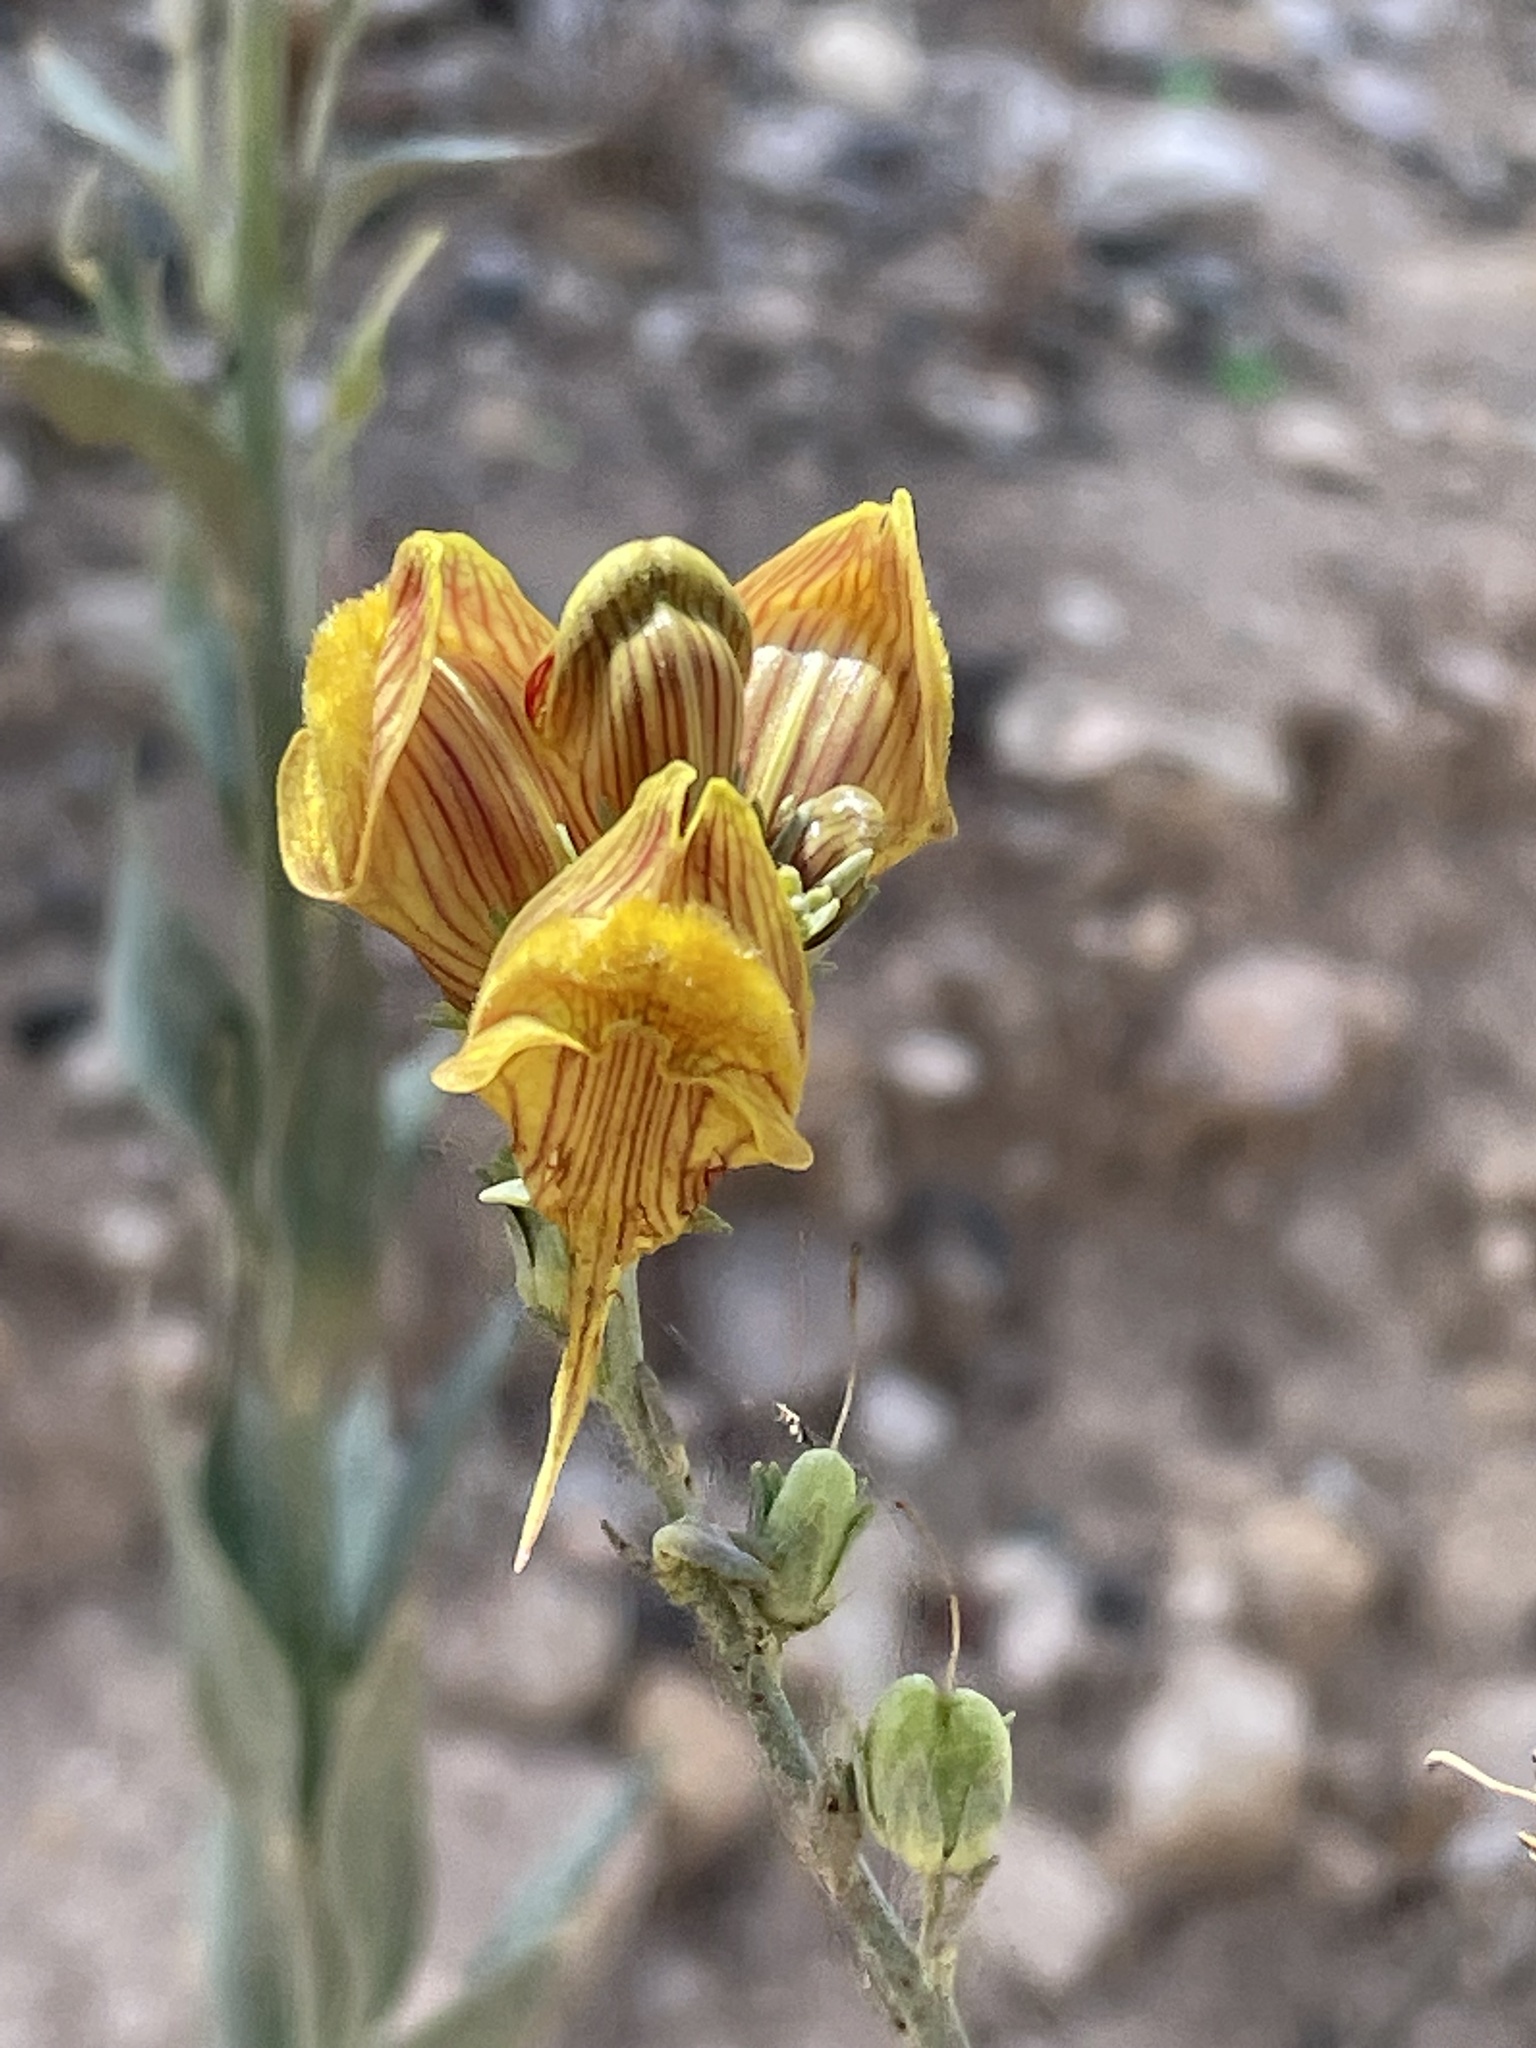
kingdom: Plantae
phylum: Tracheophyta
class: Magnoliopsida
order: Lamiales
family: Plantaginaceae
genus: Linaria
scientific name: Linaria ventricosa
